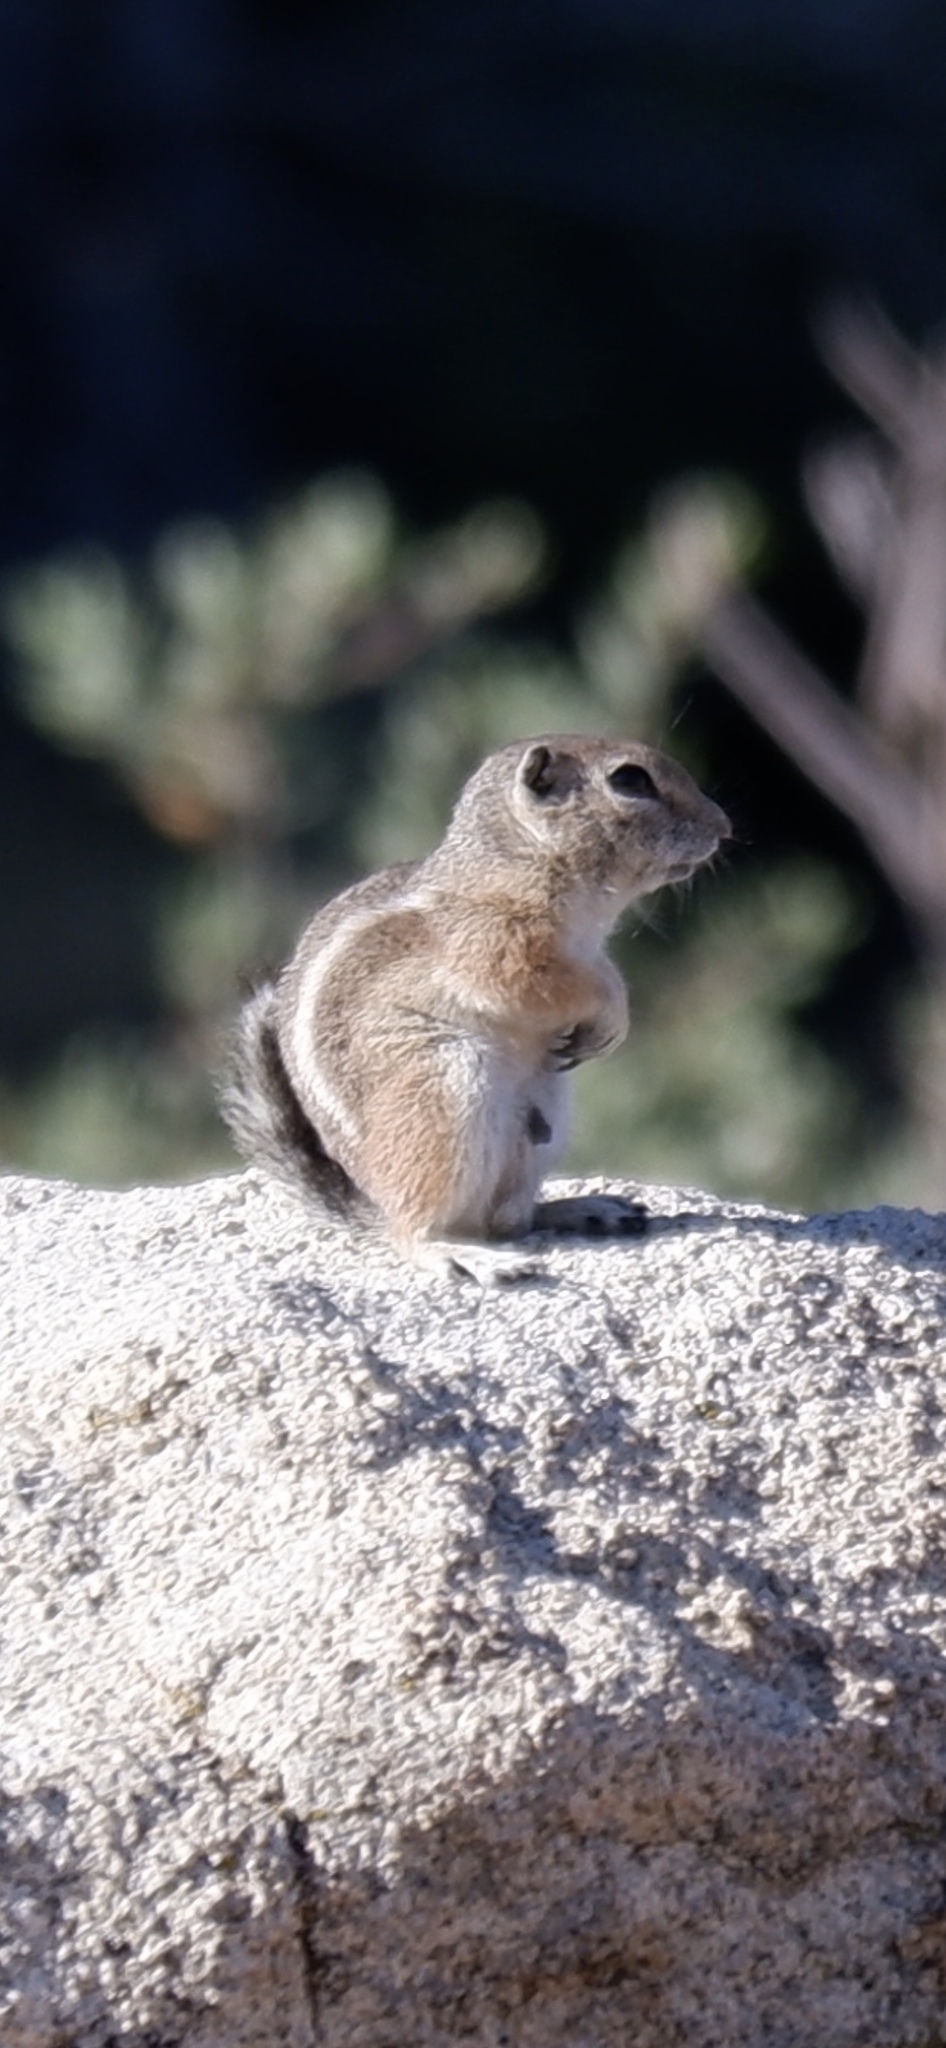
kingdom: Animalia
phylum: Chordata
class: Mammalia
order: Rodentia
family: Sciuridae
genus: Ammospermophilus
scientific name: Ammospermophilus leucurus
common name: White-tailed antelope squirrel
